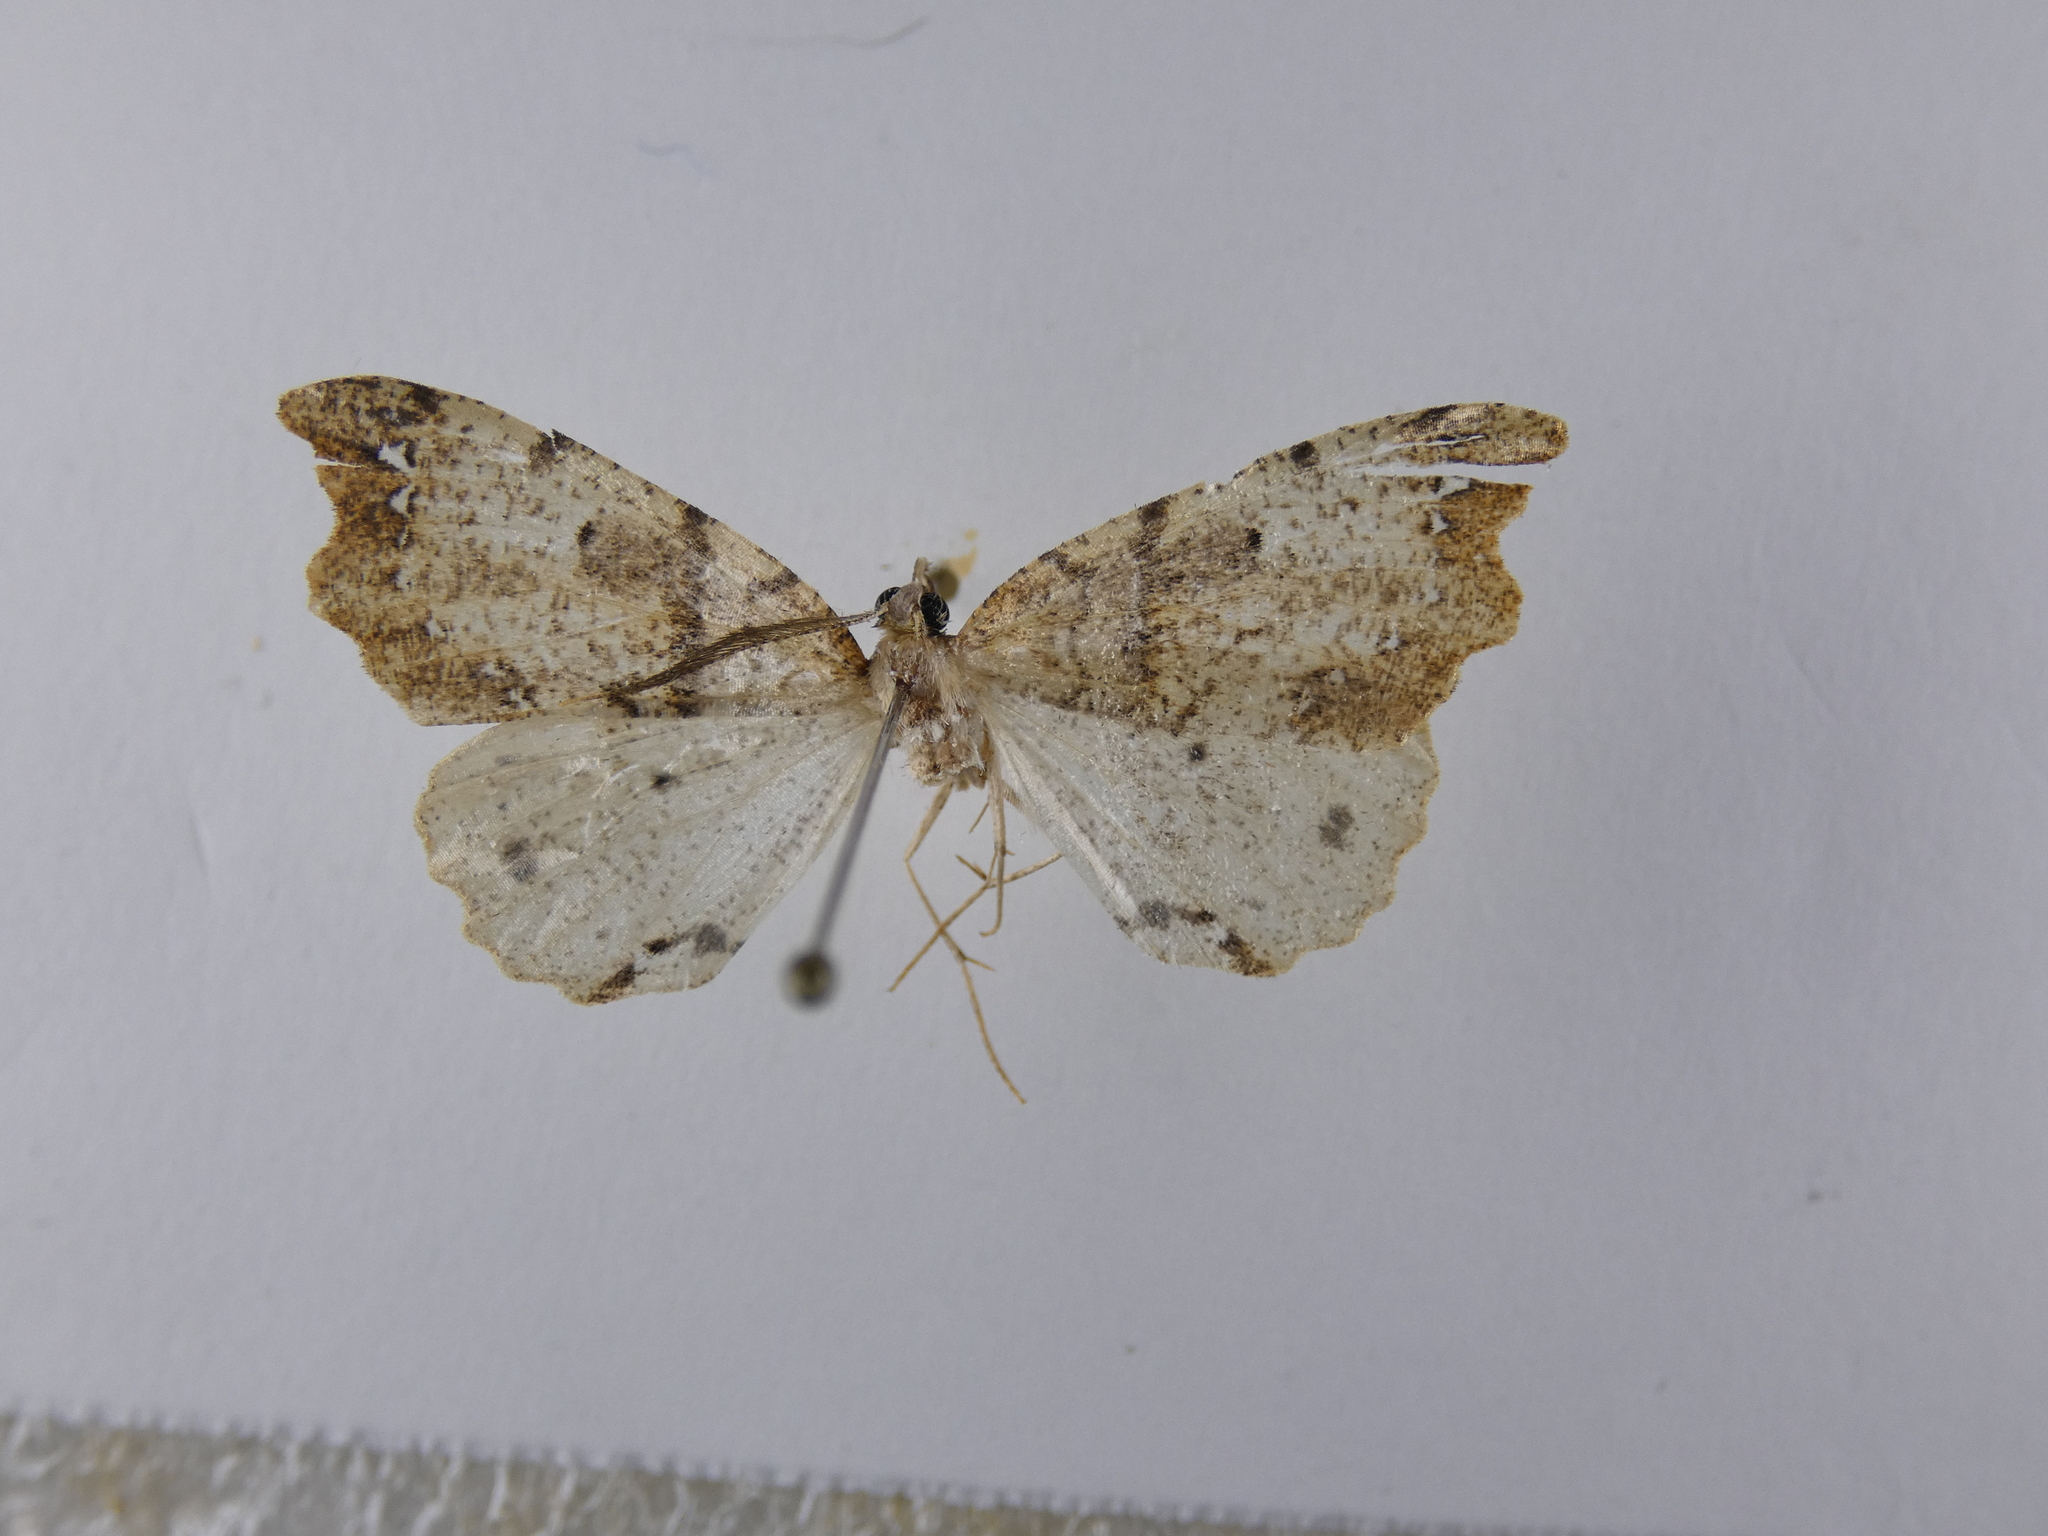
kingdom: Animalia
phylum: Arthropoda
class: Insecta
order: Lepidoptera
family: Geometridae
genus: Chalastra
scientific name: Chalastra pellurgata
